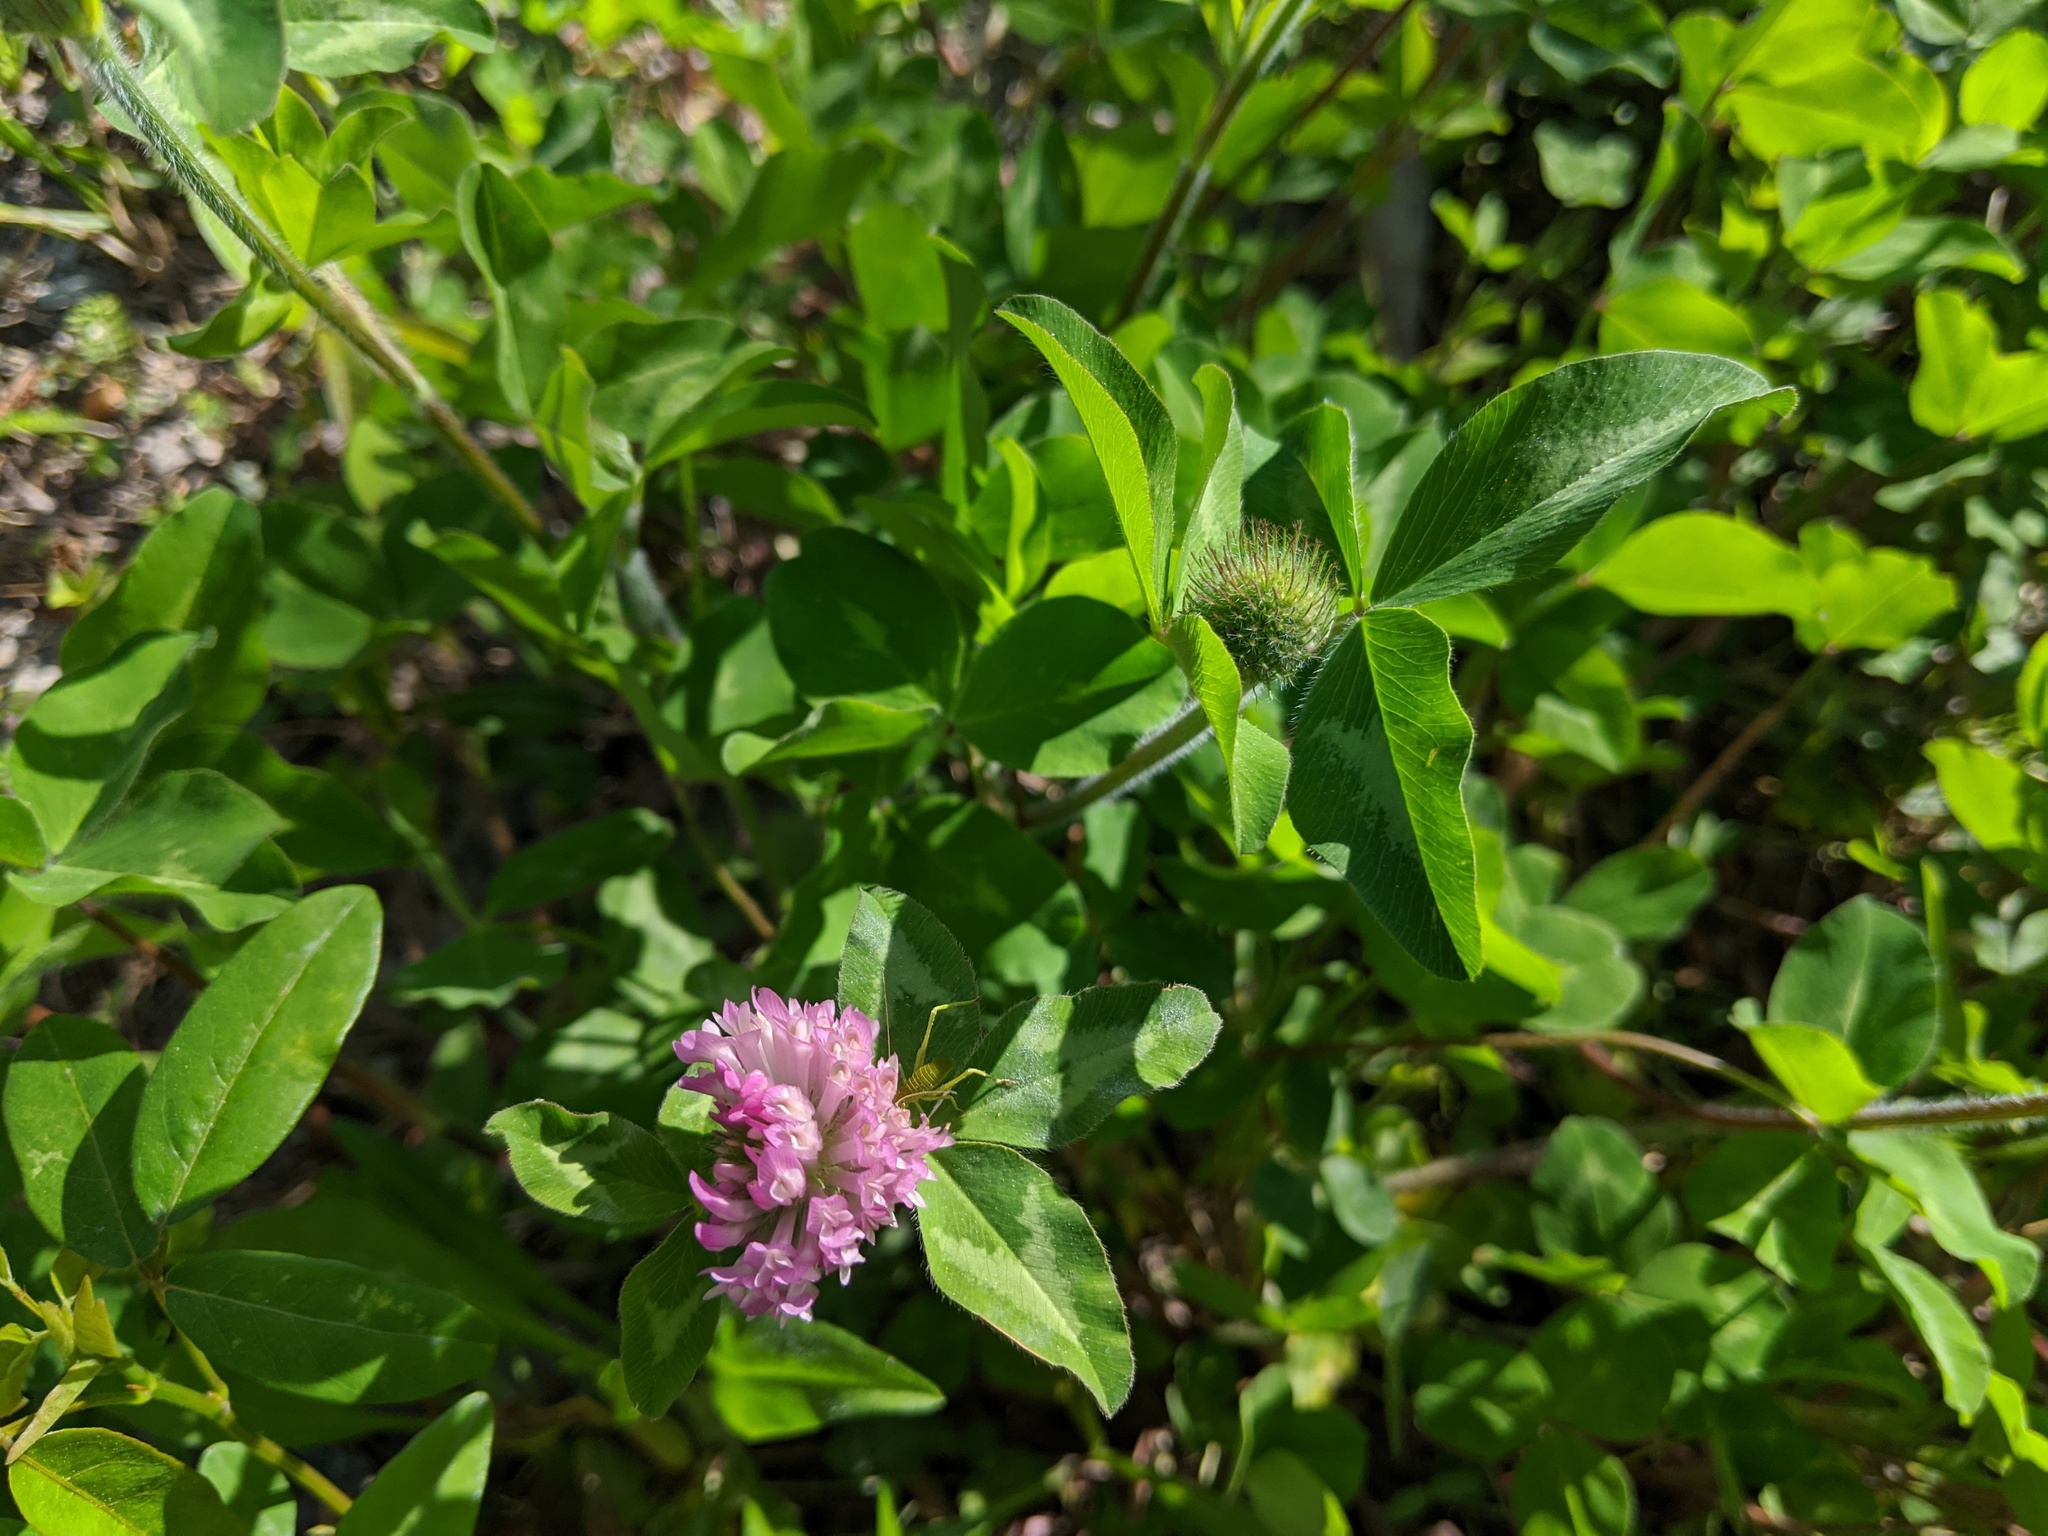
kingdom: Plantae
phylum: Tracheophyta
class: Magnoliopsida
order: Fabales
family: Fabaceae
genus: Trifolium
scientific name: Trifolium pratense
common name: Red clover
